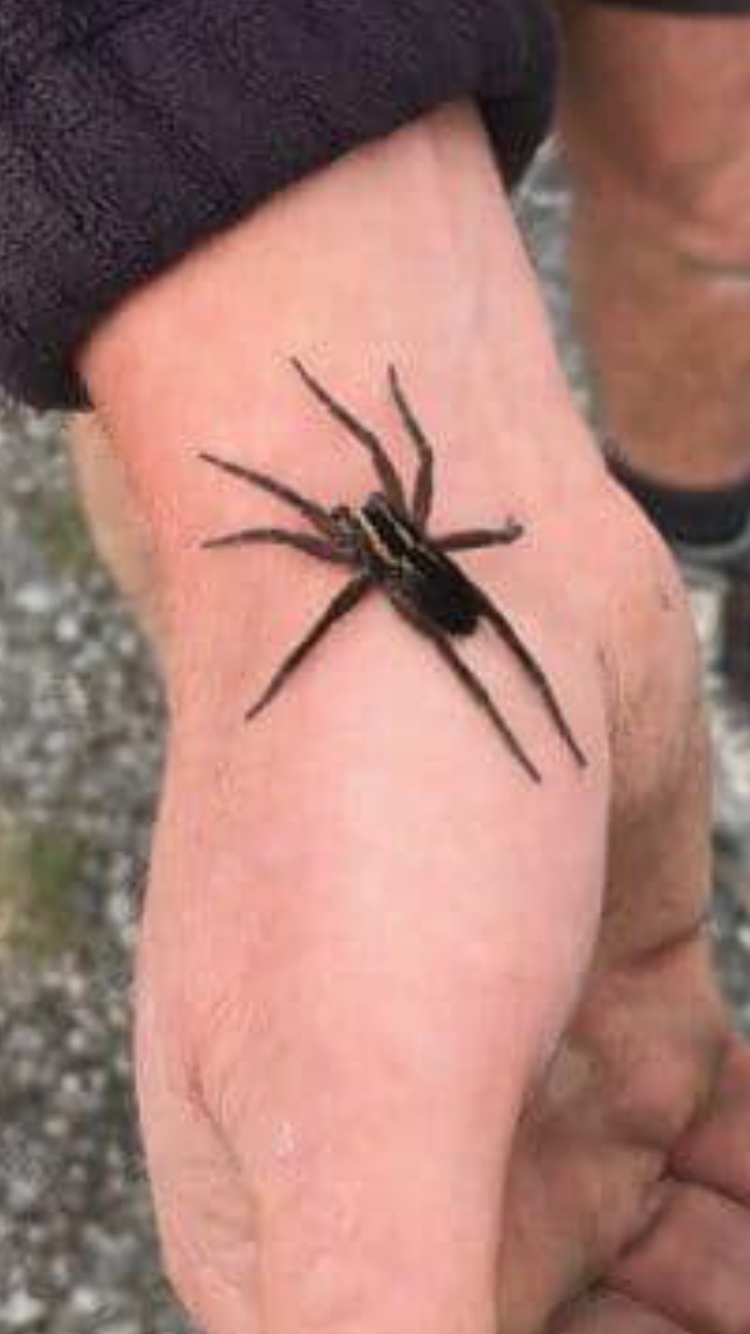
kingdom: Animalia
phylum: Arthropoda
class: Arachnida
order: Araneae
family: Pisauridae
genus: Dolomedes
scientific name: Dolomedes minor
